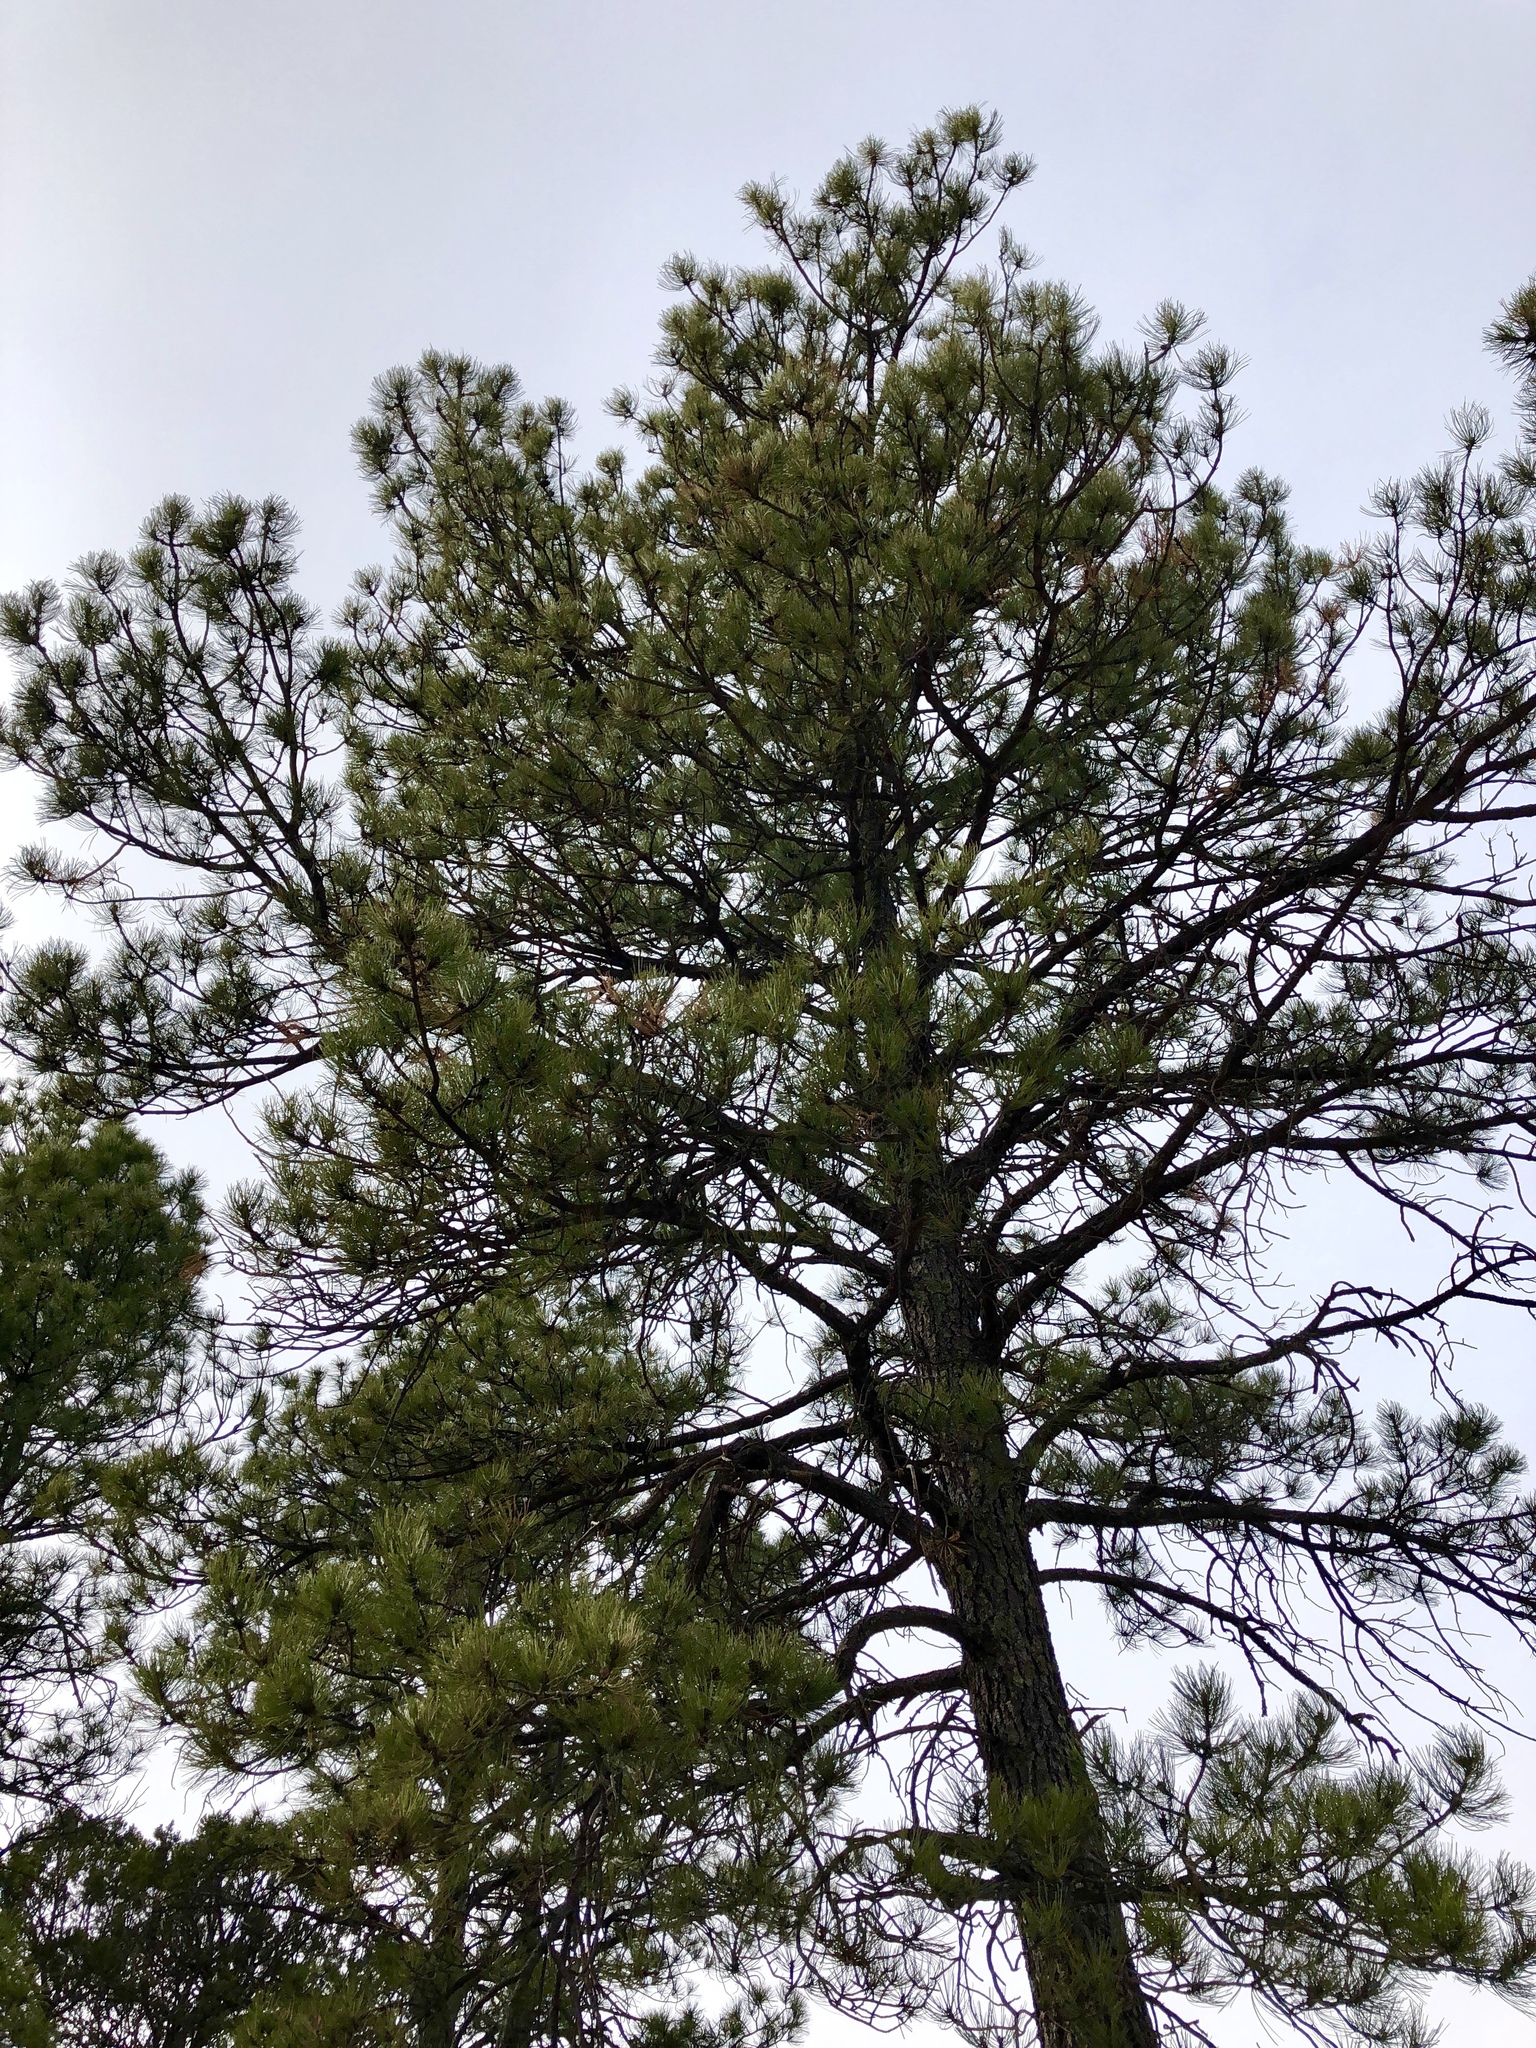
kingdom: Plantae
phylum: Tracheophyta
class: Pinopsida
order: Pinales
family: Pinaceae
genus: Pinus
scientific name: Pinus ponderosa
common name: Western yellow-pine
